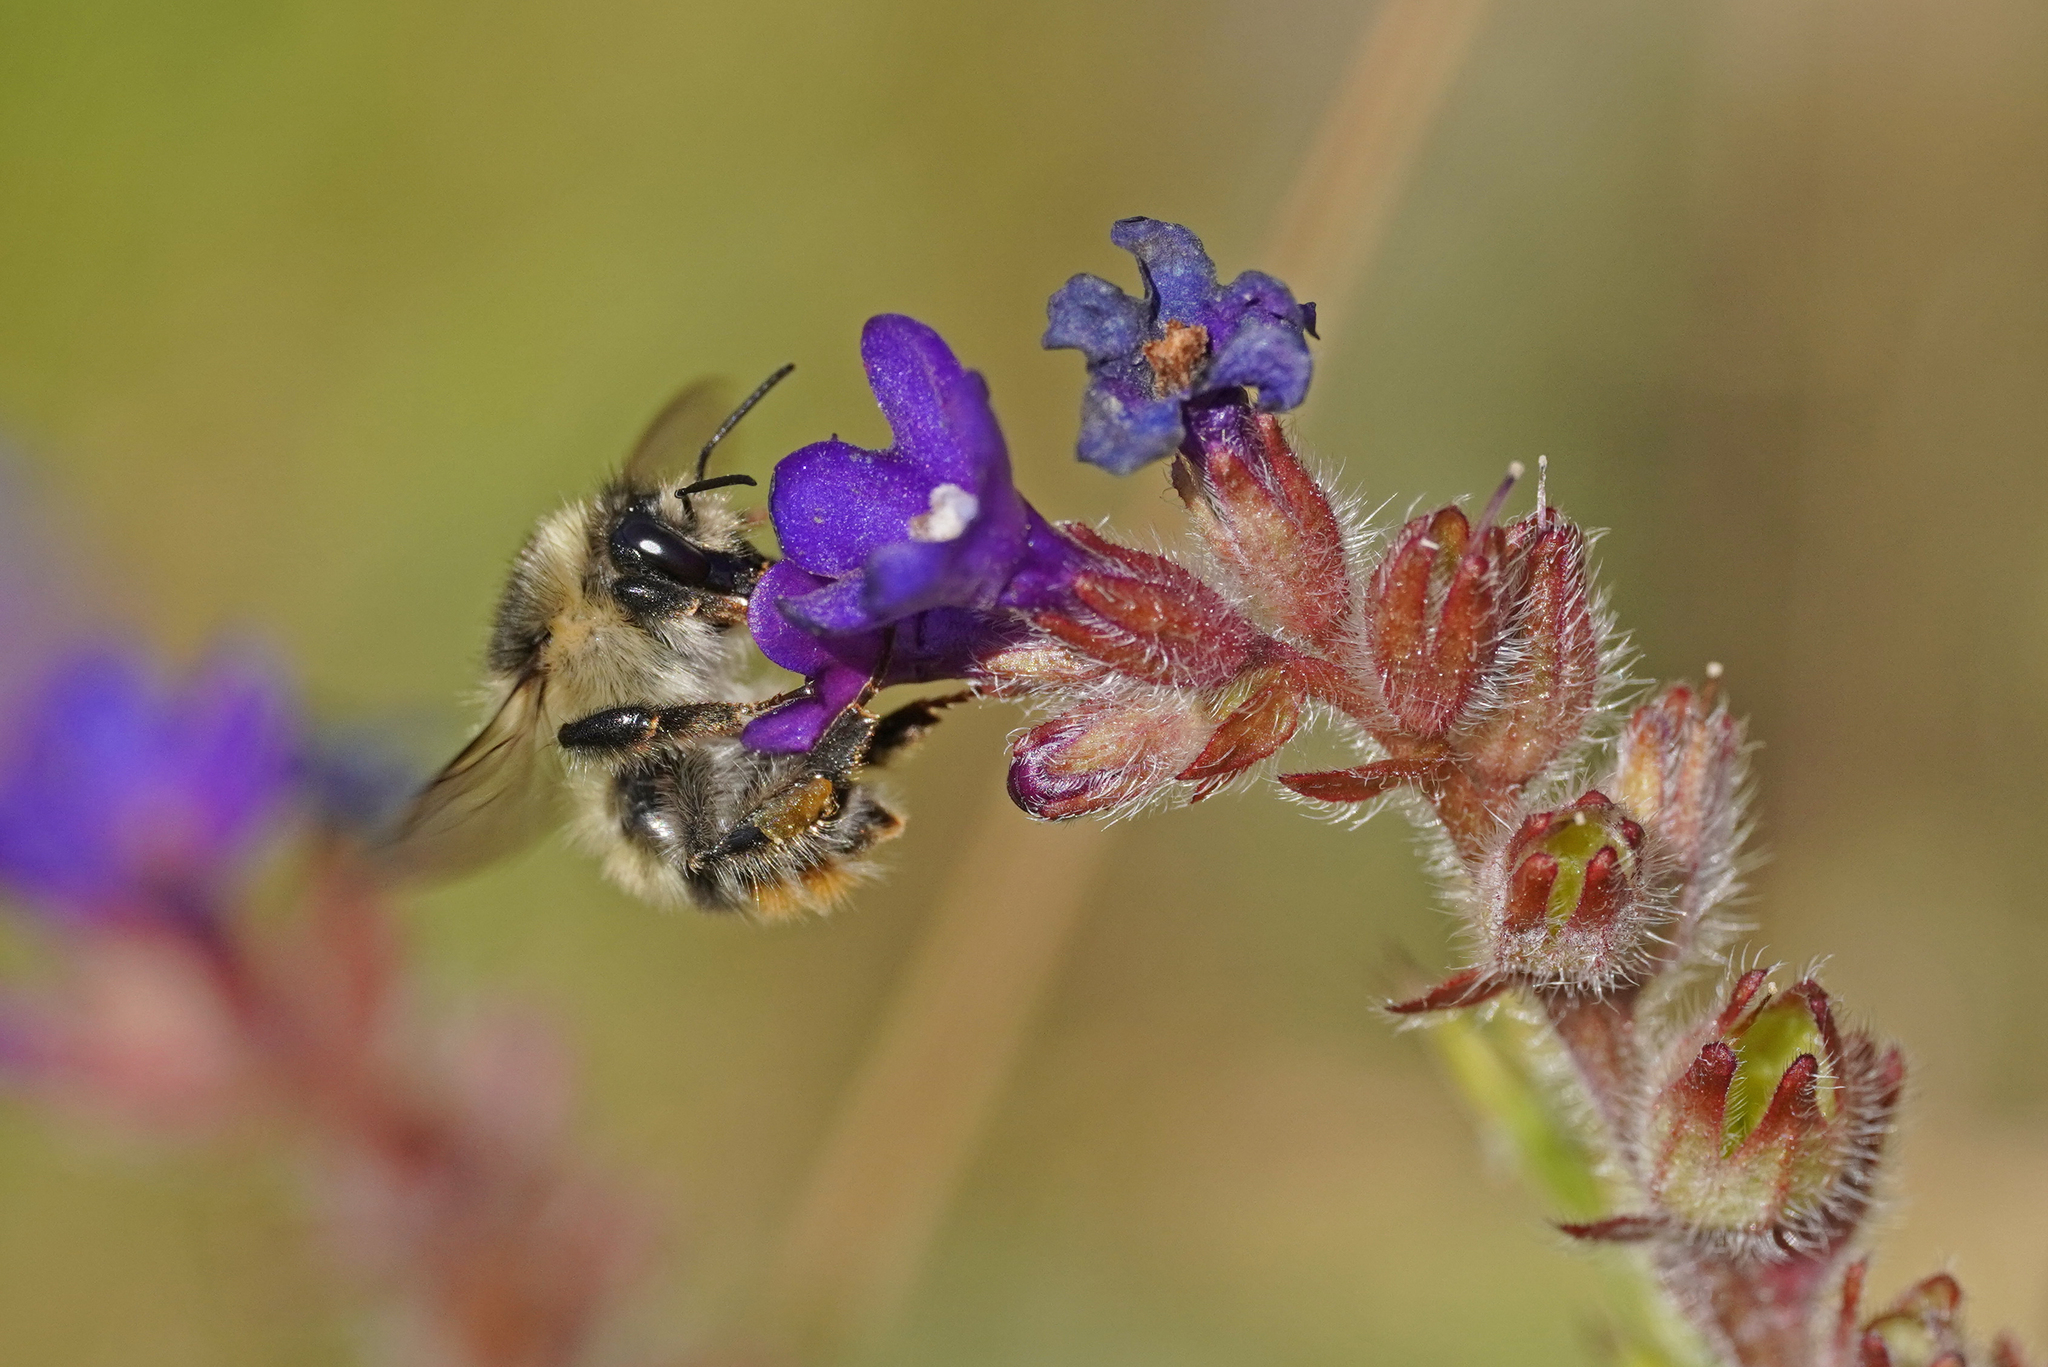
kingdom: Animalia
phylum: Arthropoda
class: Insecta
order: Hymenoptera
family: Apidae
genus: Bombus
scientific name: Bombus sylvarum
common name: Shrill carder bee
